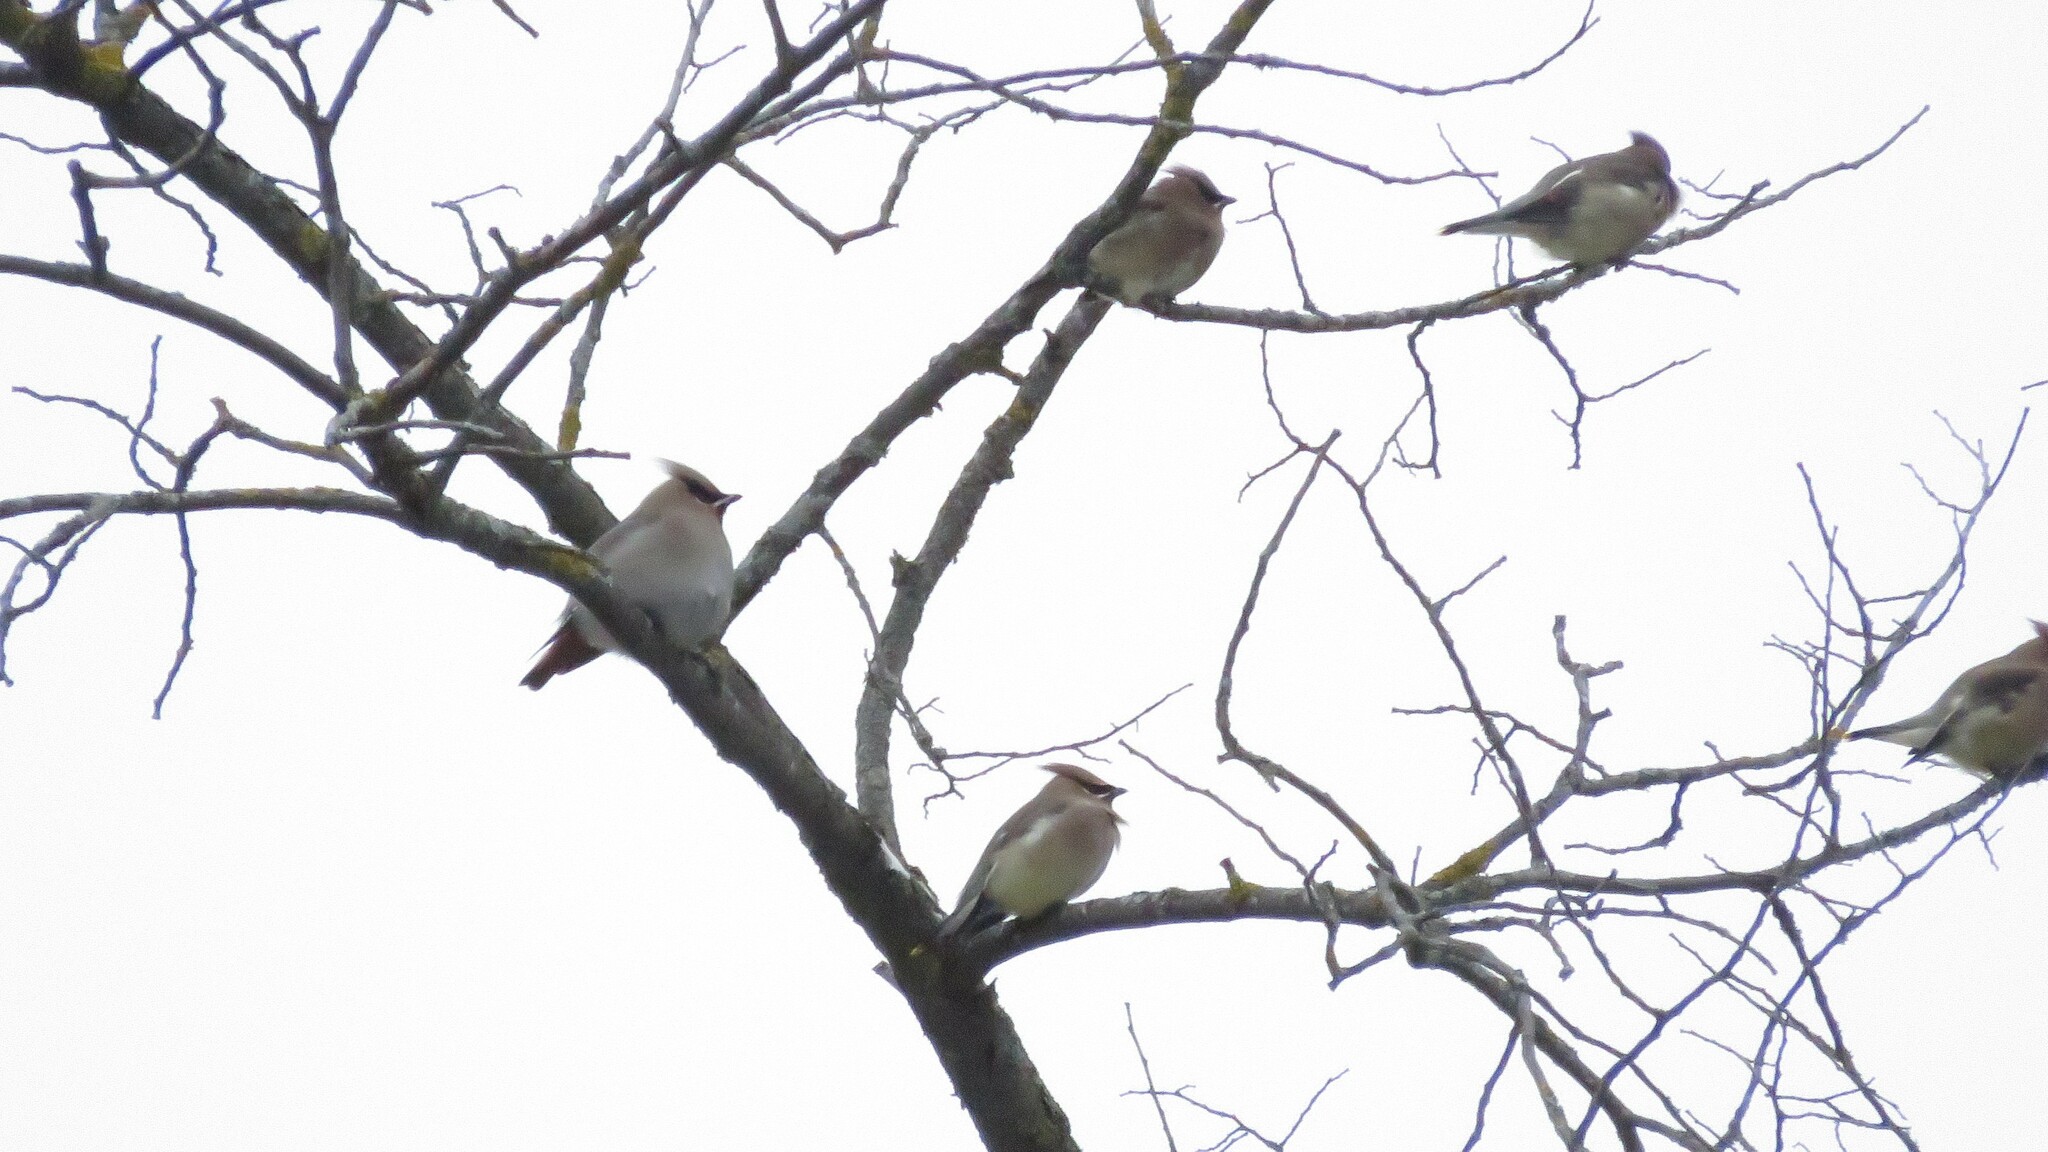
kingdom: Animalia
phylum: Chordata
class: Aves
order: Passeriformes
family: Bombycillidae
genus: Bombycilla
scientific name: Bombycilla garrulus
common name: Bohemian waxwing
